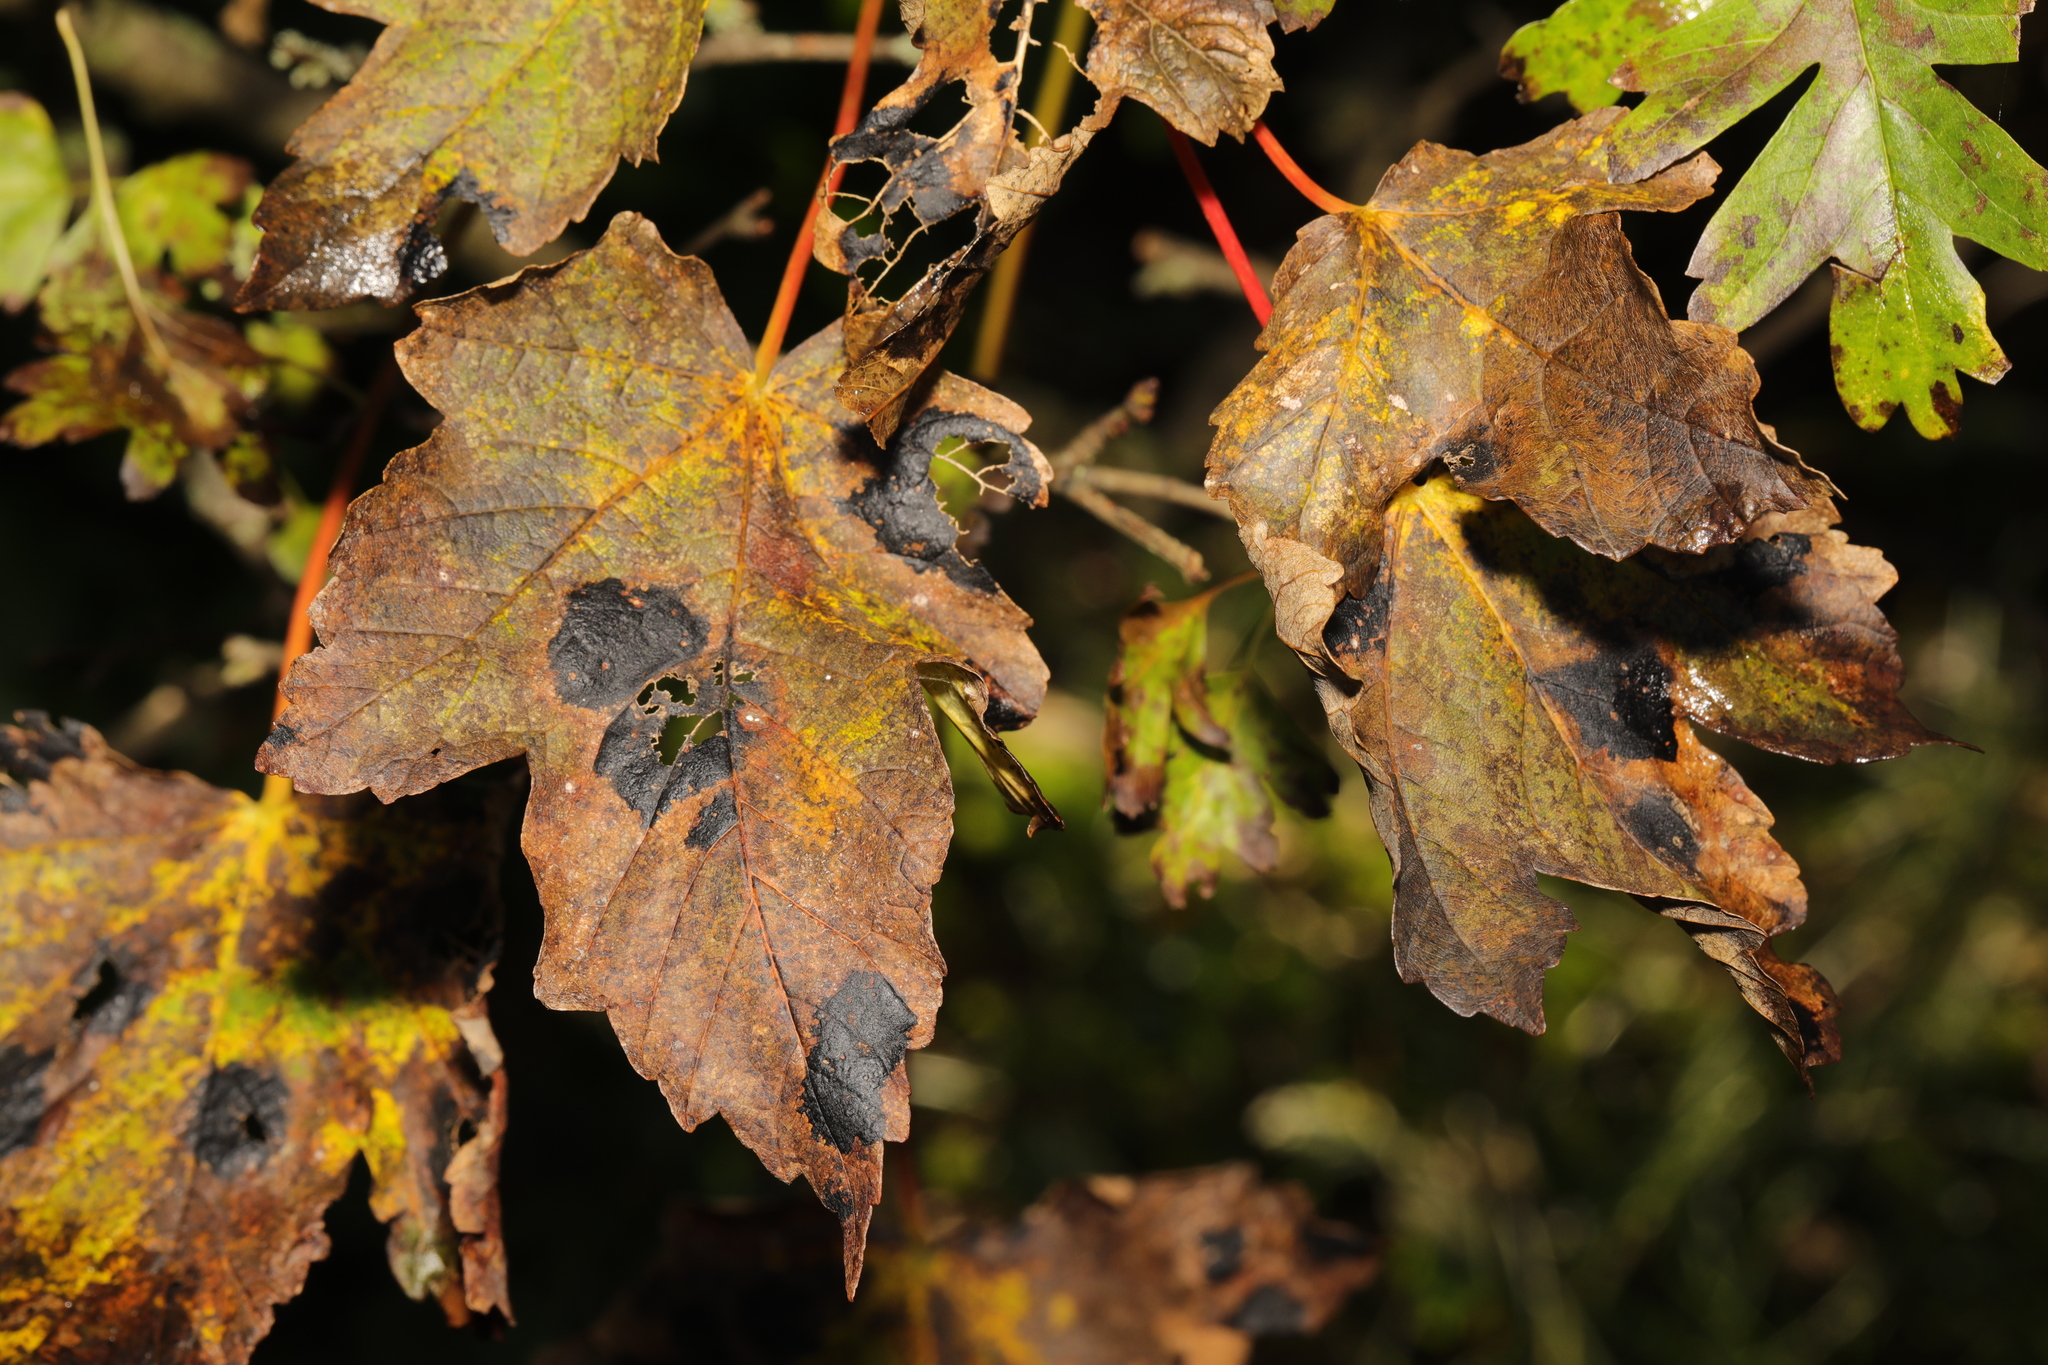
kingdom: Fungi
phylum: Ascomycota
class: Leotiomycetes
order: Rhytismatales
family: Rhytismataceae
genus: Rhytisma
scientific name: Rhytisma acerinum
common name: European tar spot
